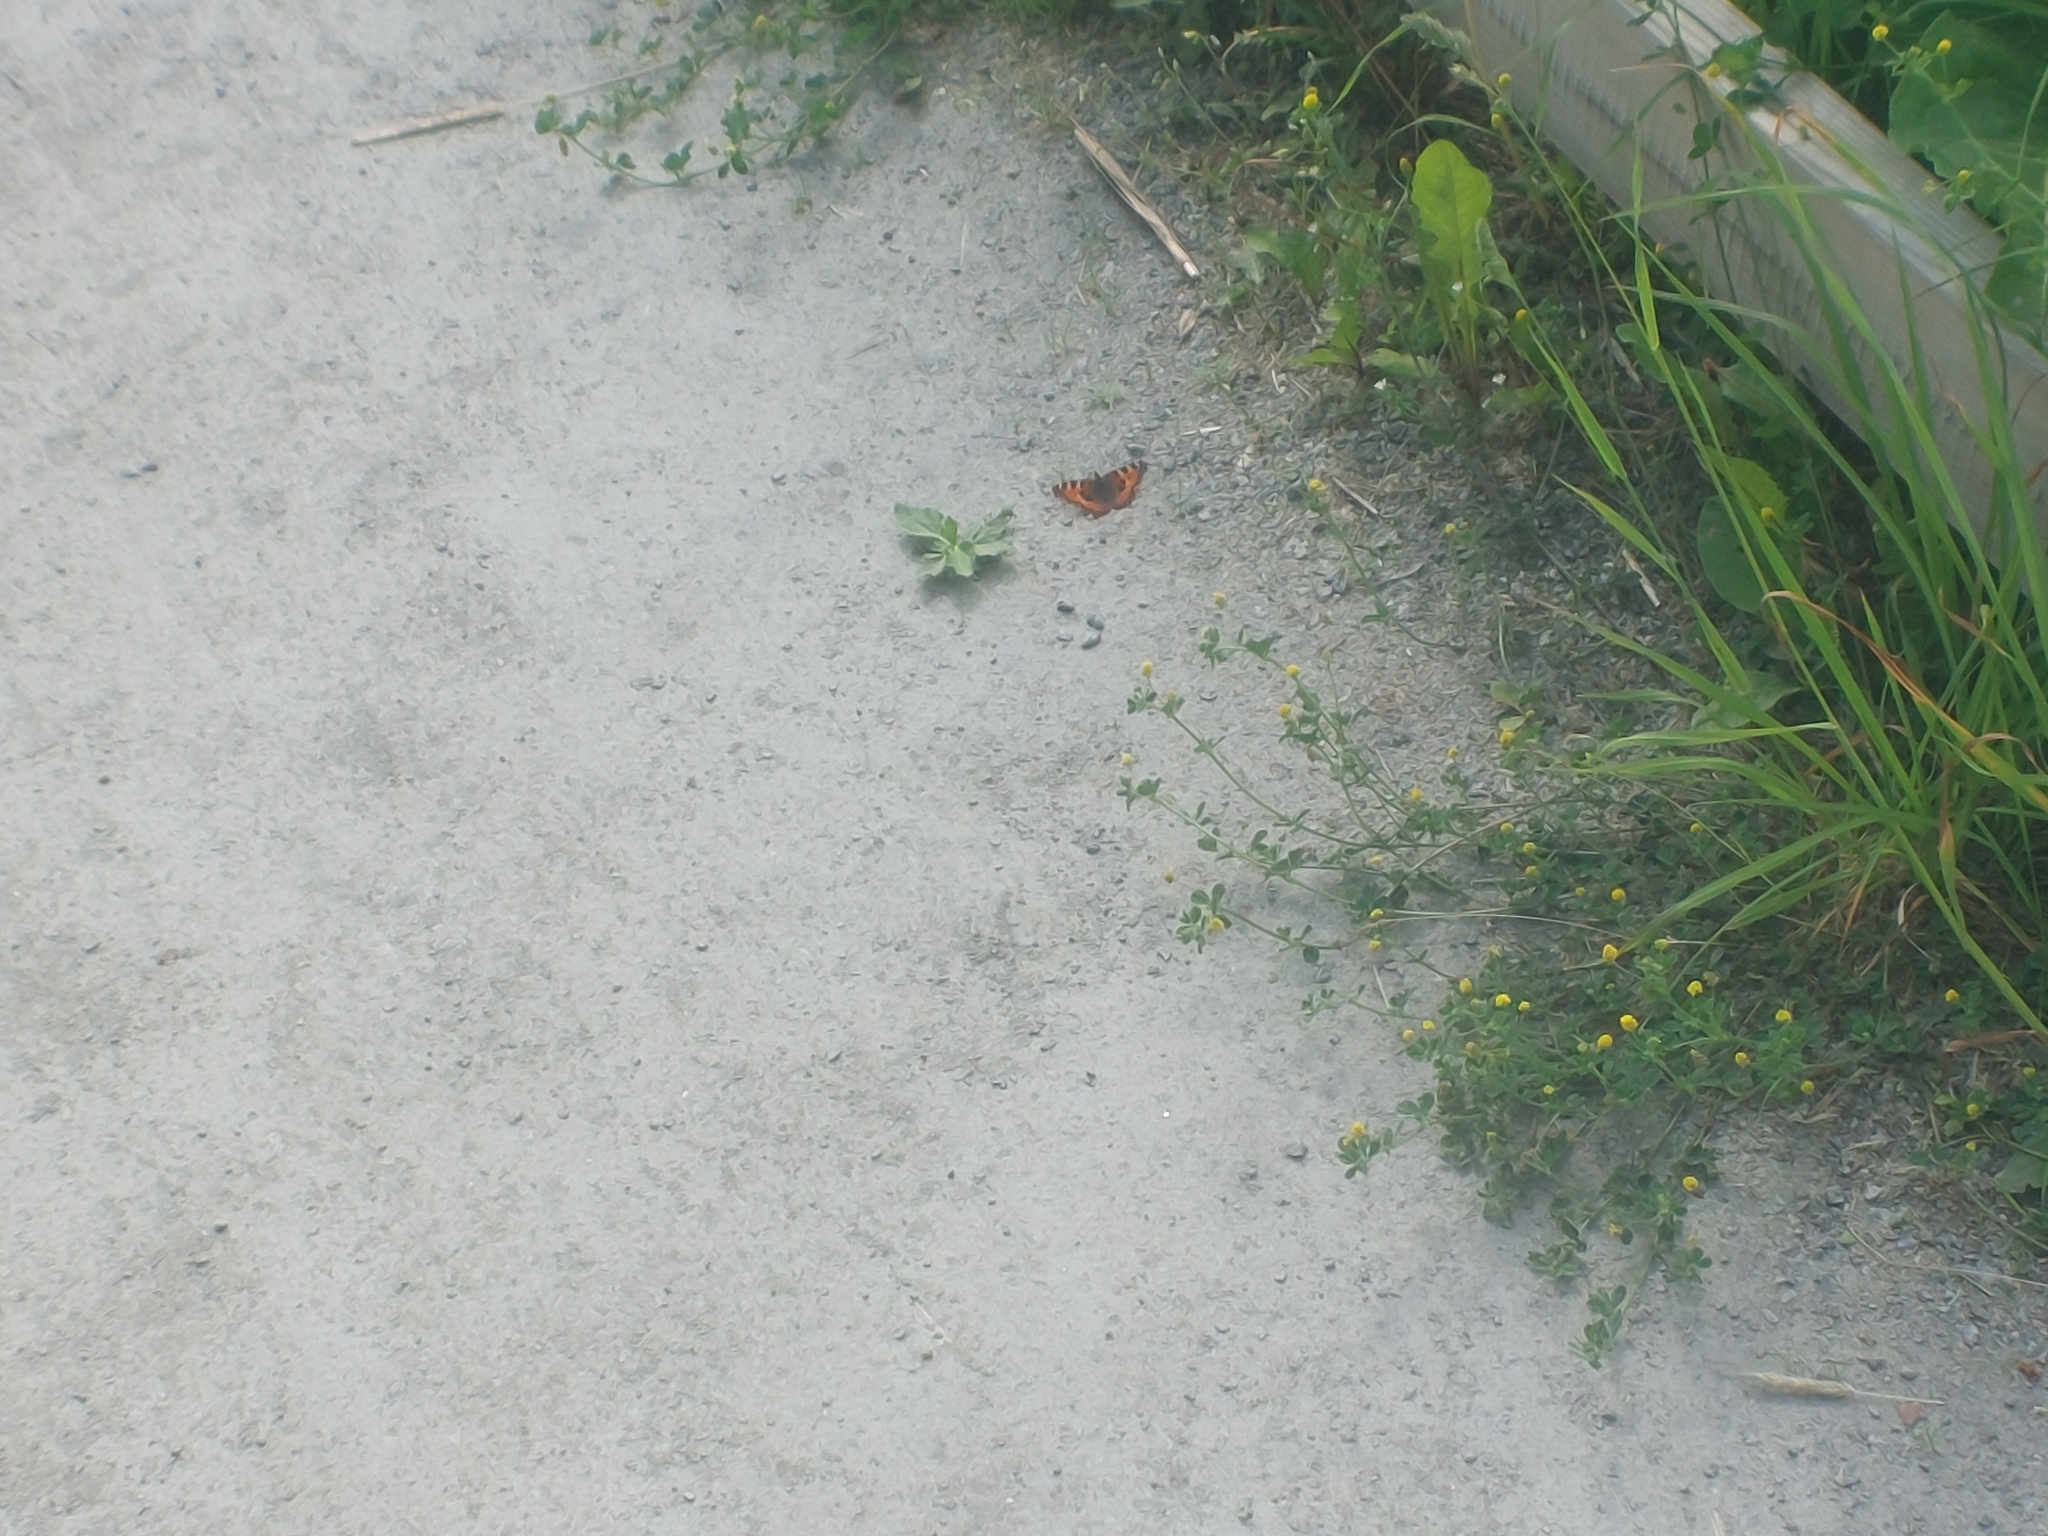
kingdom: Animalia
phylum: Arthropoda
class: Insecta
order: Lepidoptera
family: Nymphalidae
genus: Aglais
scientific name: Aglais urticae
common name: Small tortoiseshell
